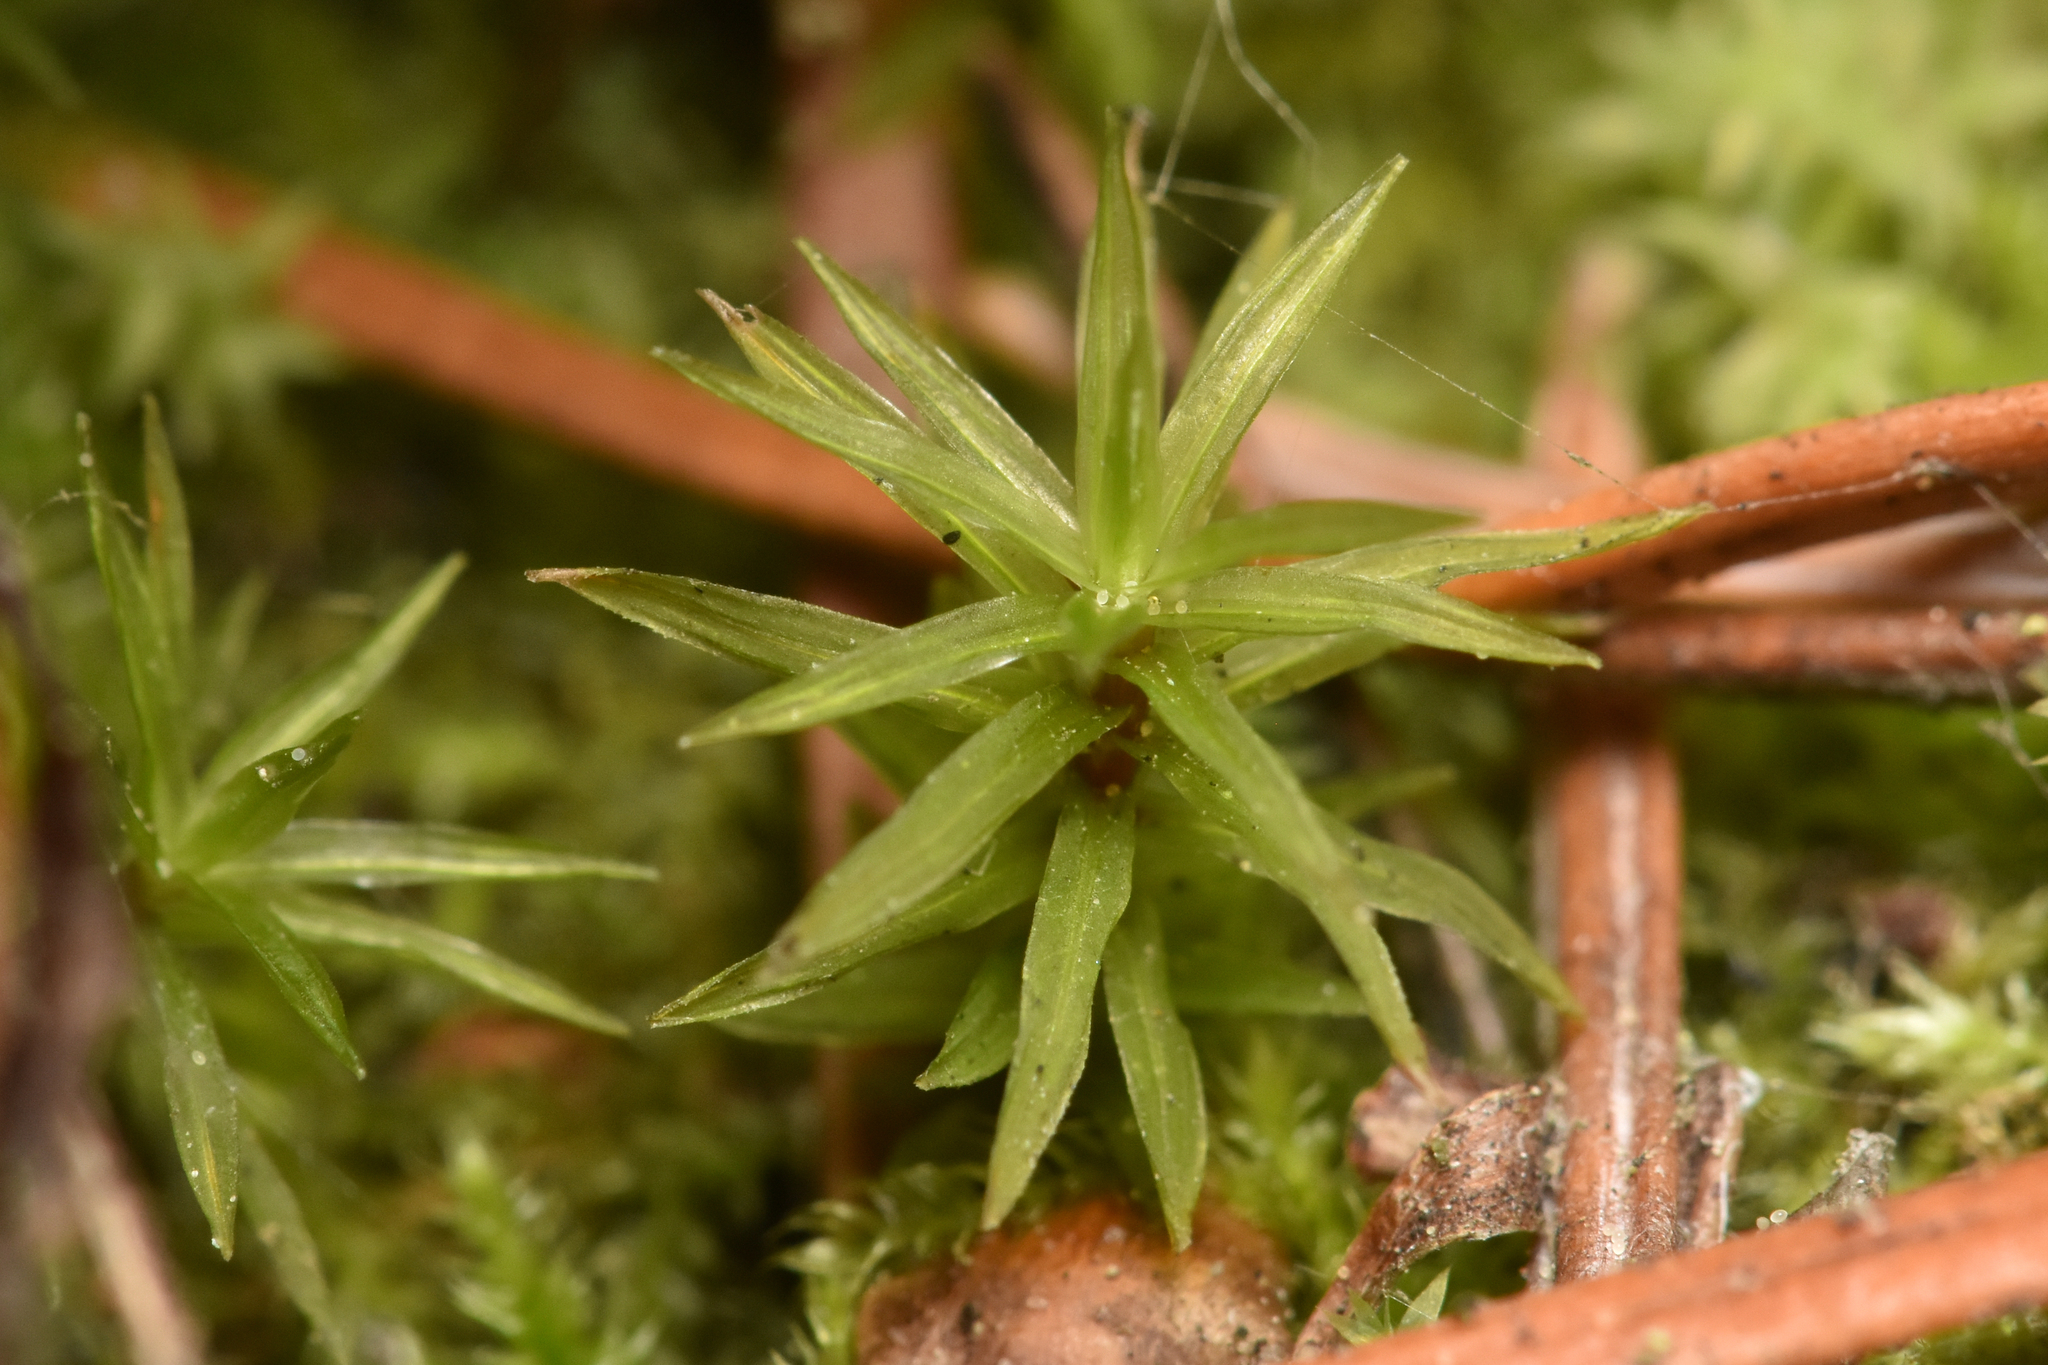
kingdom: Plantae
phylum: Bryophyta
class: Bryopsida
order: Timmiales
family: Timmiaceae
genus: Timmia
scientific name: Timmia austriaca
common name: Austrian timmia
